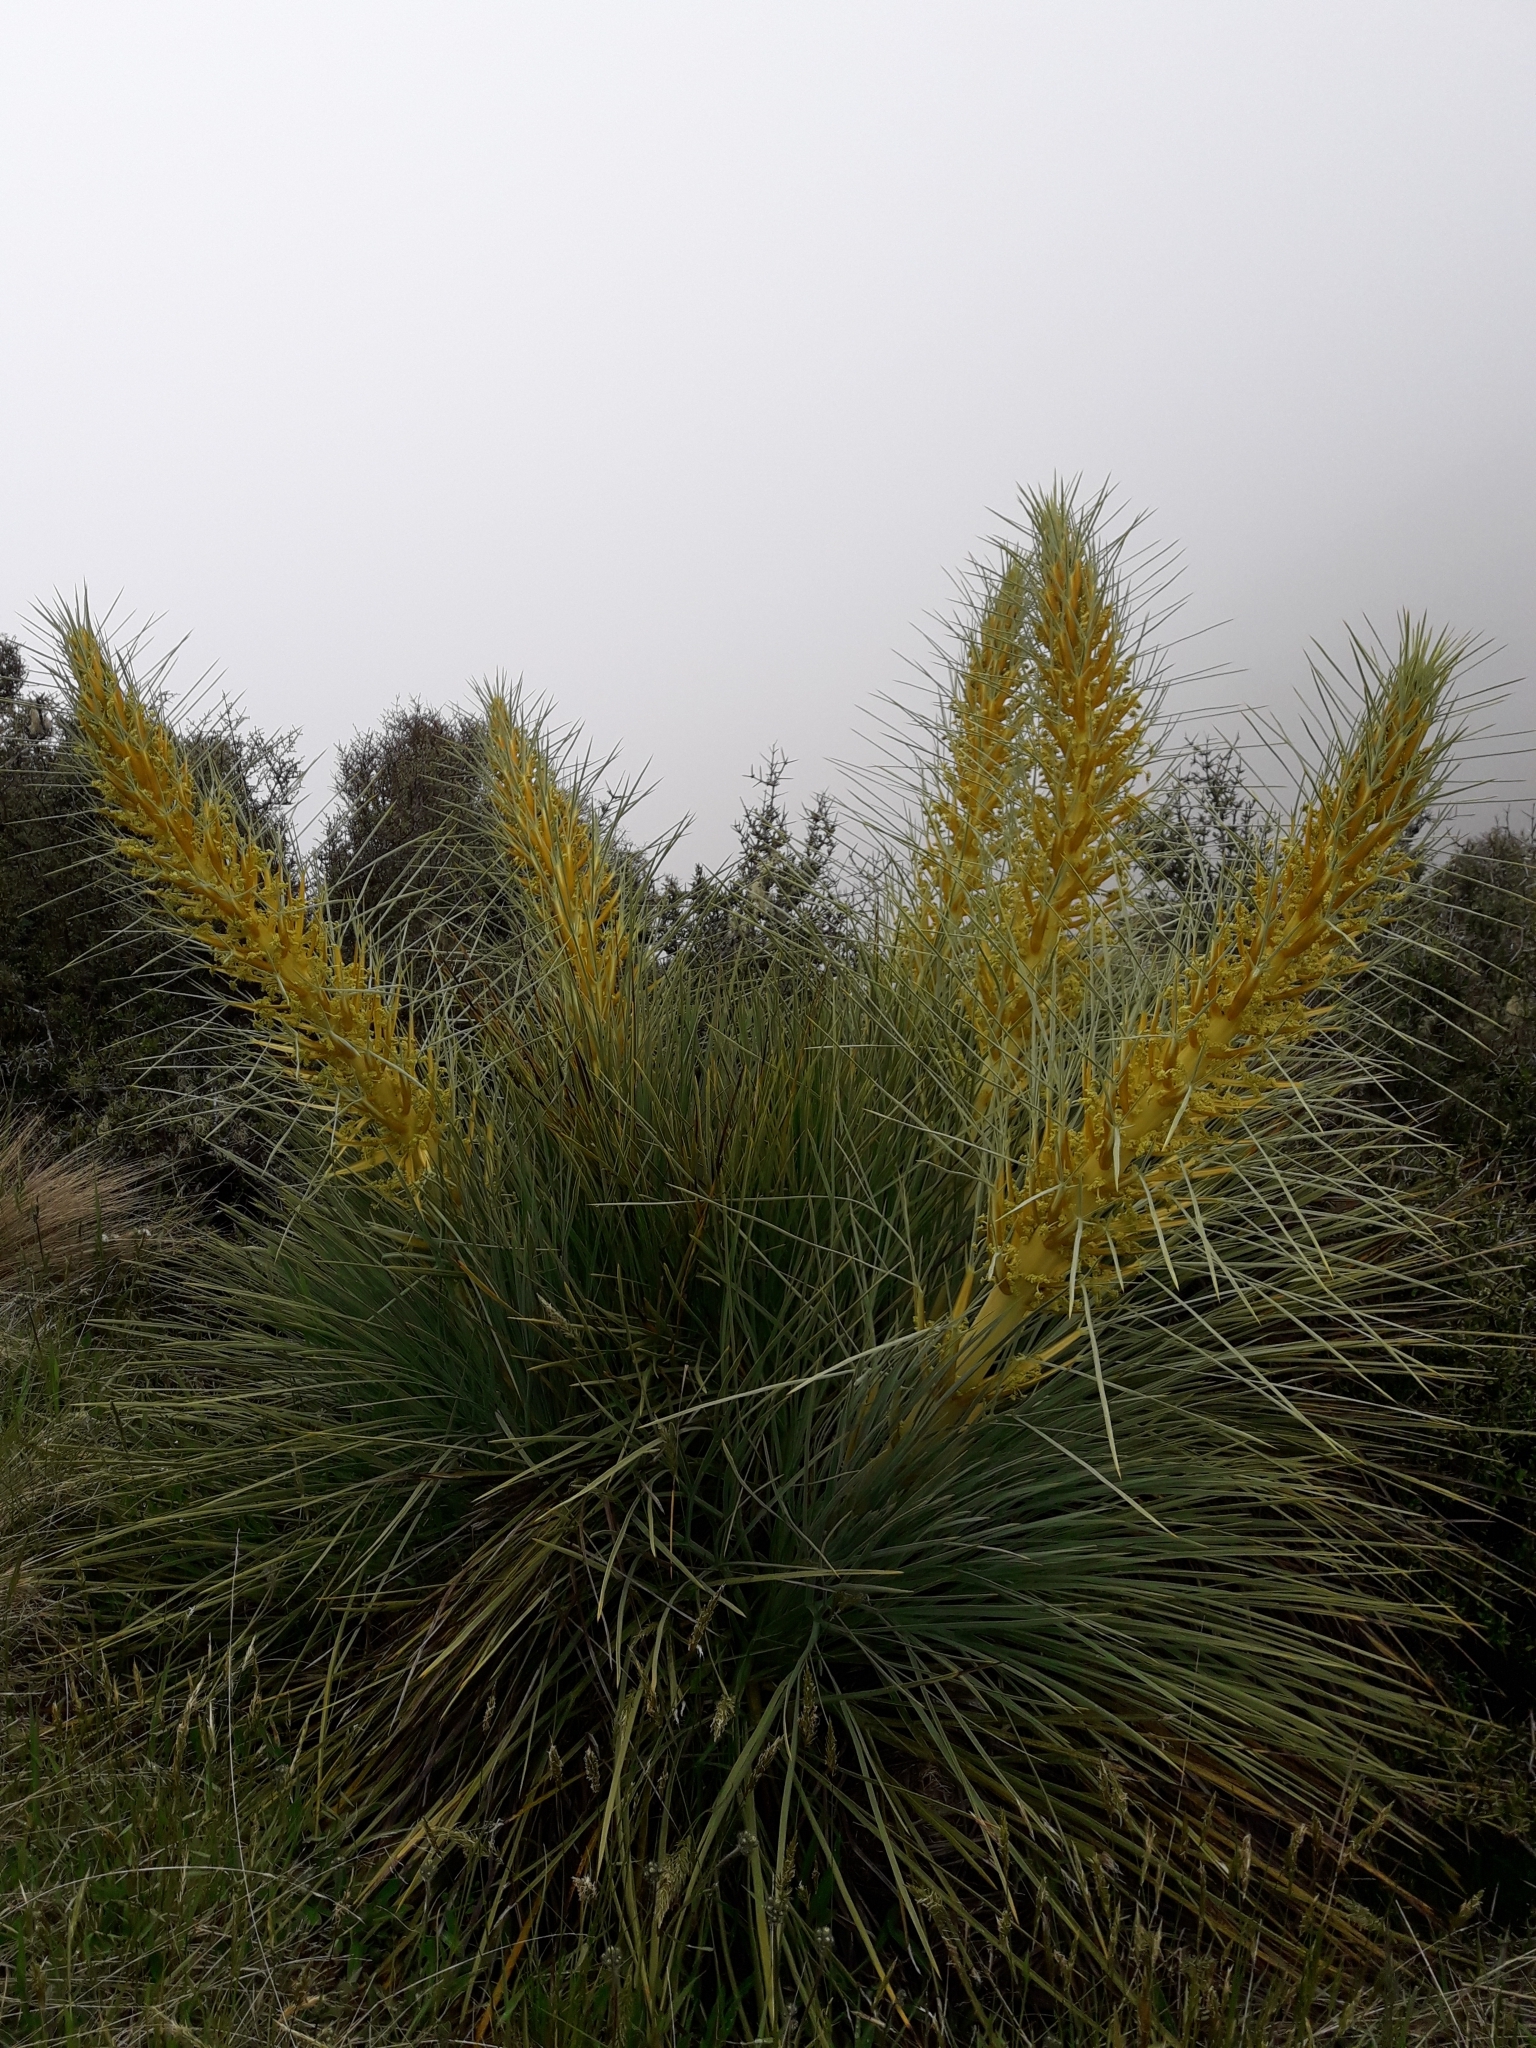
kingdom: Plantae
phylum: Tracheophyta
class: Magnoliopsida
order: Apiales
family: Apiaceae
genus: Aciphylla
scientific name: Aciphylla glaucescens
